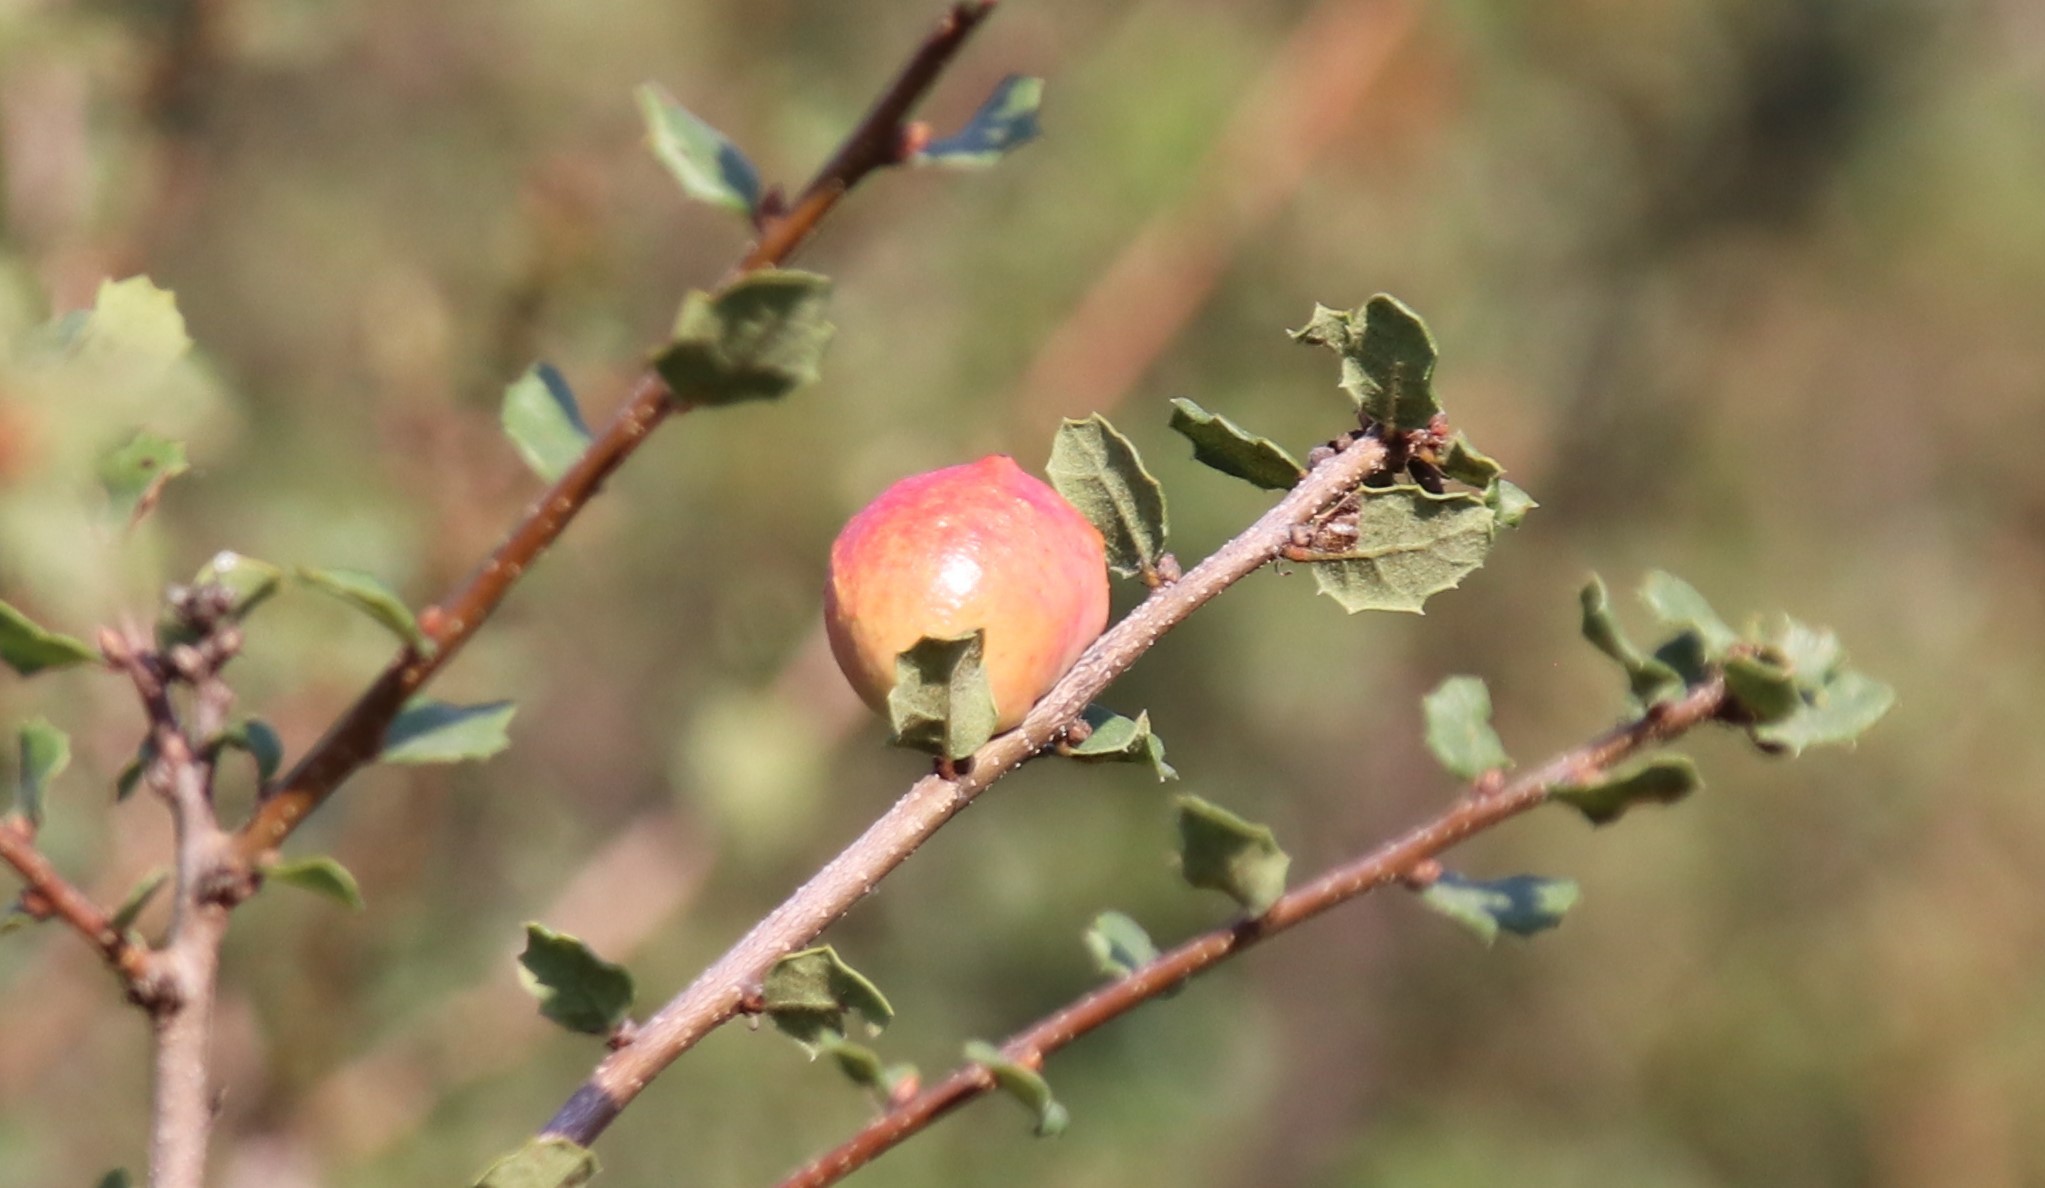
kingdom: Animalia
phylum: Arthropoda
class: Insecta
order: Hymenoptera
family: Cynipidae
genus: Andricus
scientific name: Andricus quercuscalifornicus
